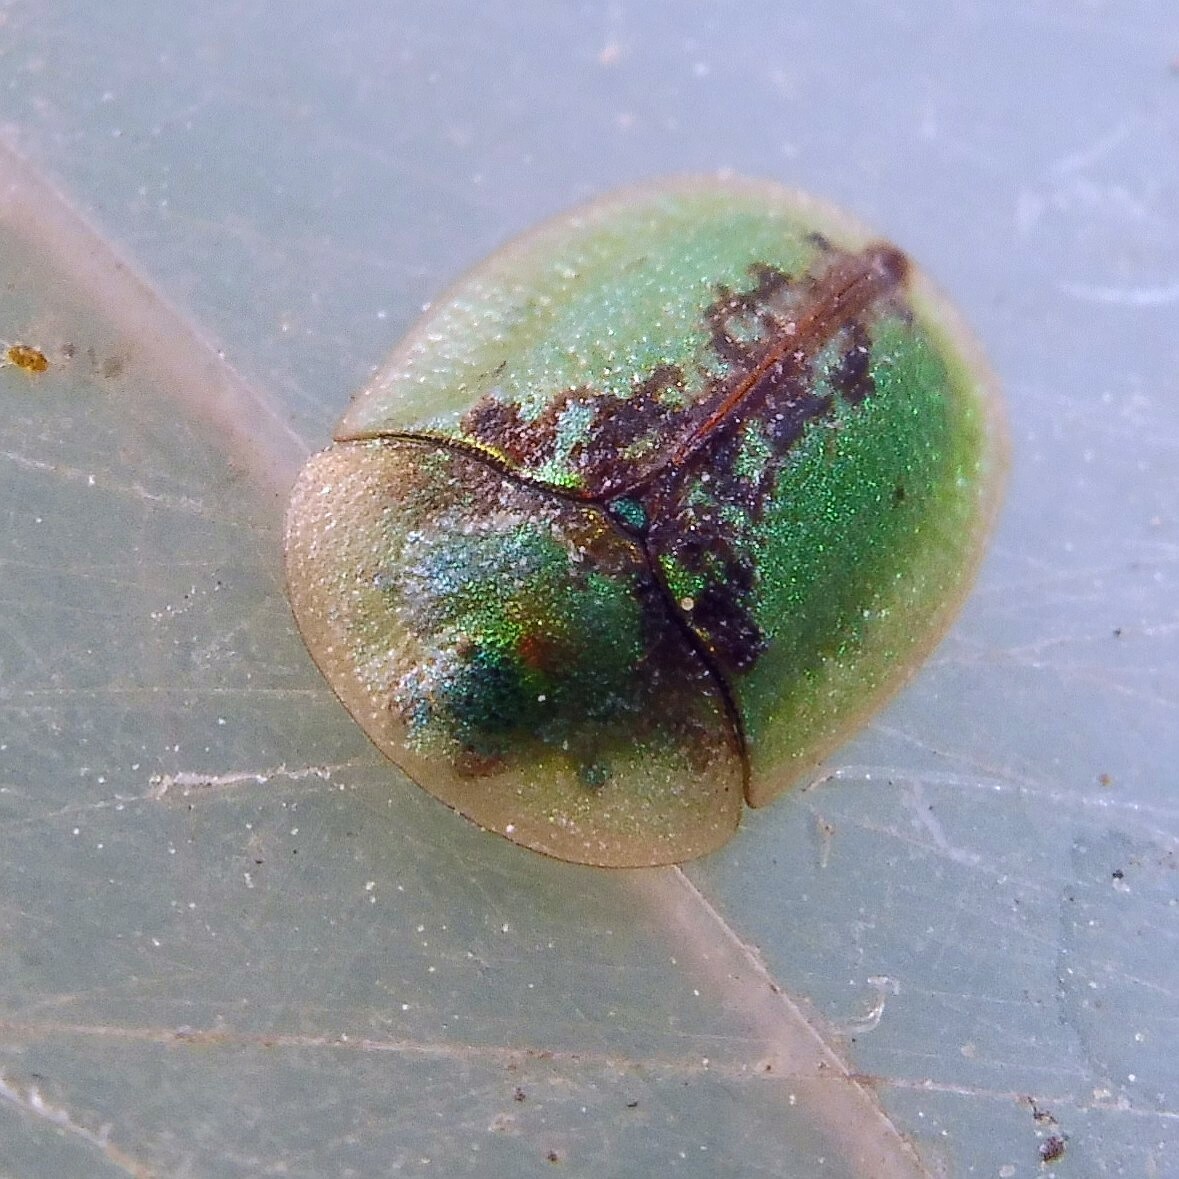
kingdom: Animalia
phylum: Arthropoda
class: Insecta
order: Coleoptera
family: Chrysomelidae
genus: Cassida
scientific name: Cassida vibex
